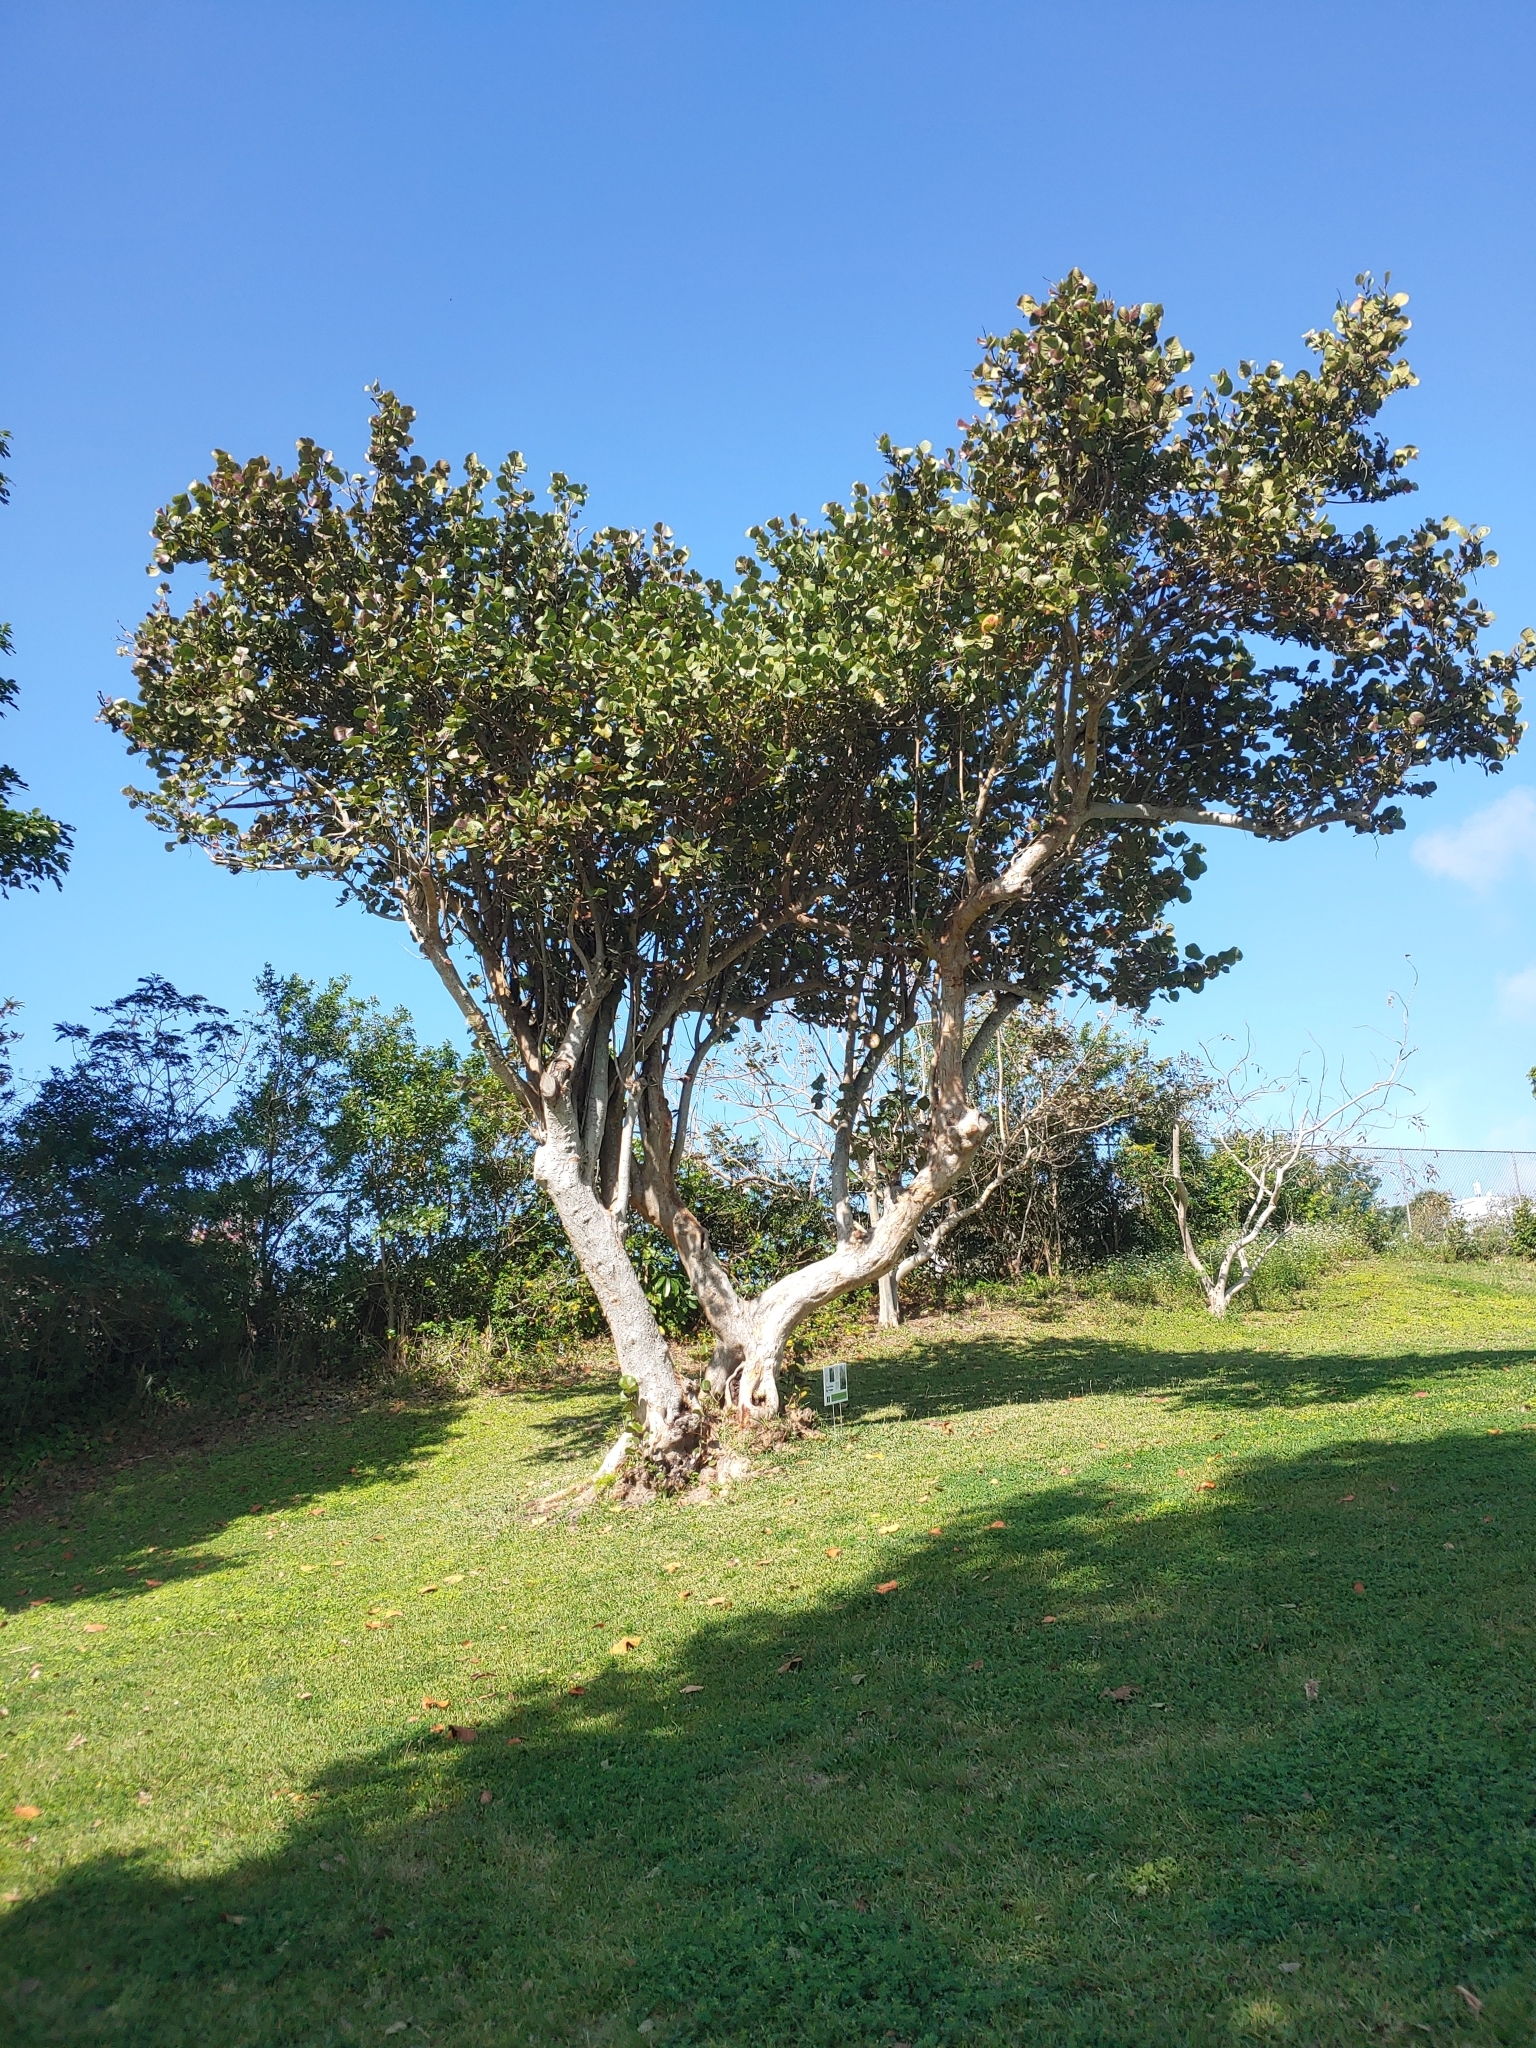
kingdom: Plantae
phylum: Tracheophyta
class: Magnoliopsida
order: Caryophyllales
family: Polygonaceae
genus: Coccoloba
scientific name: Coccoloba uvifera
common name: Seagrape
